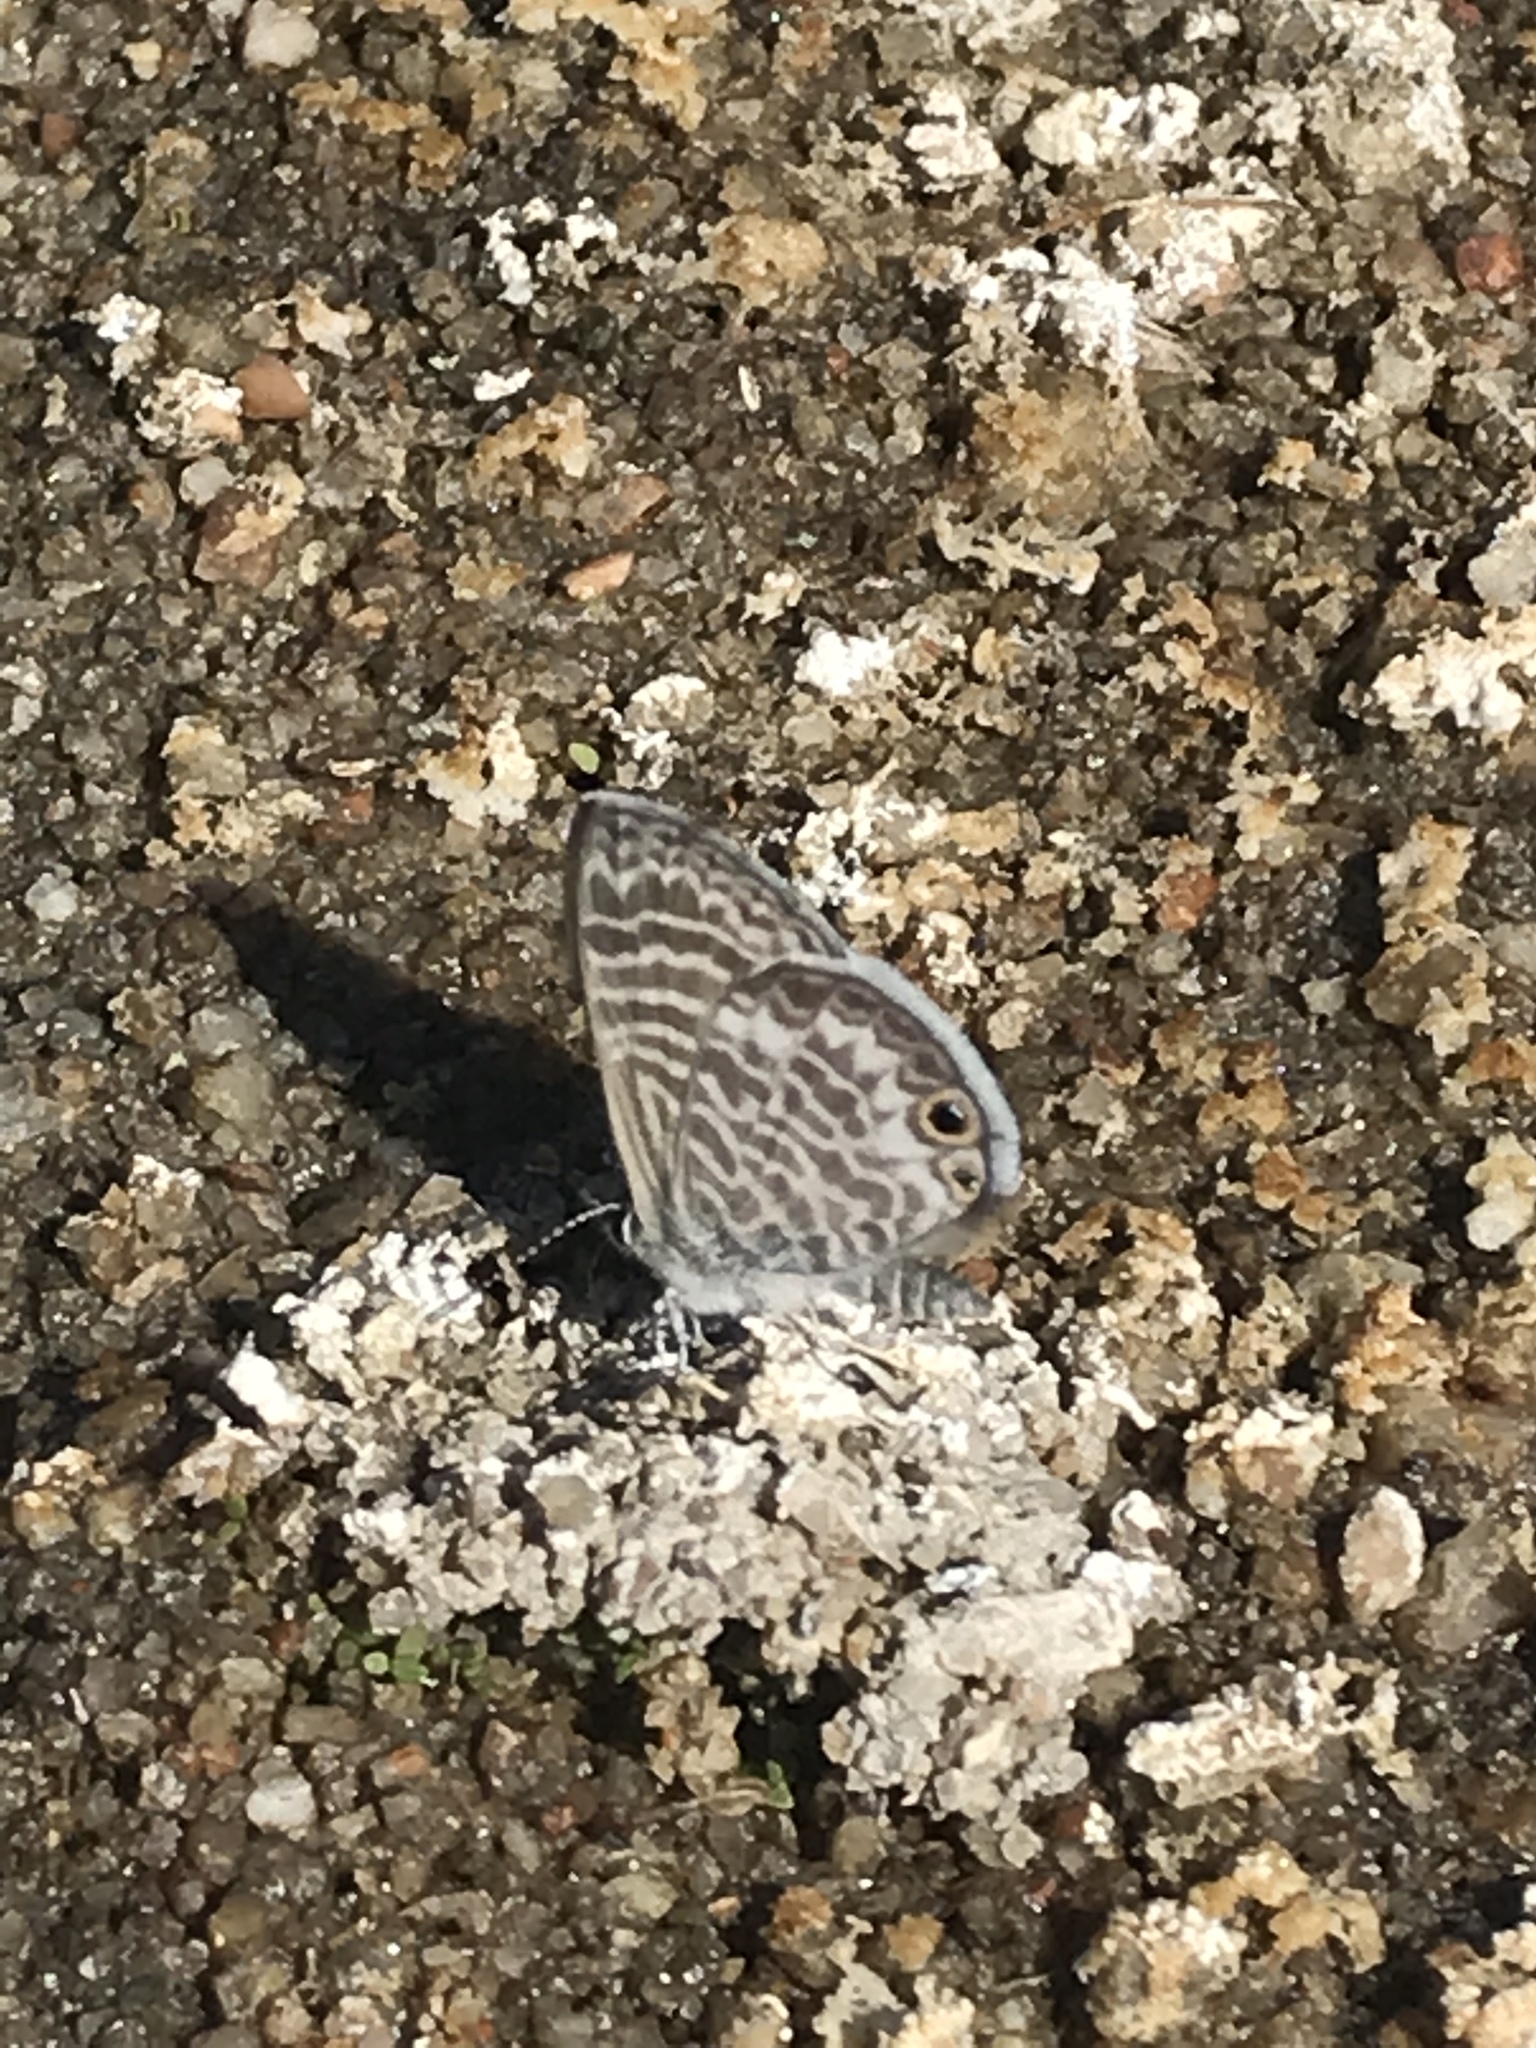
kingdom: Animalia
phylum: Arthropoda
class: Insecta
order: Lepidoptera
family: Lycaenidae
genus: Leptotes
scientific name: Leptotes marina
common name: Marine blue
